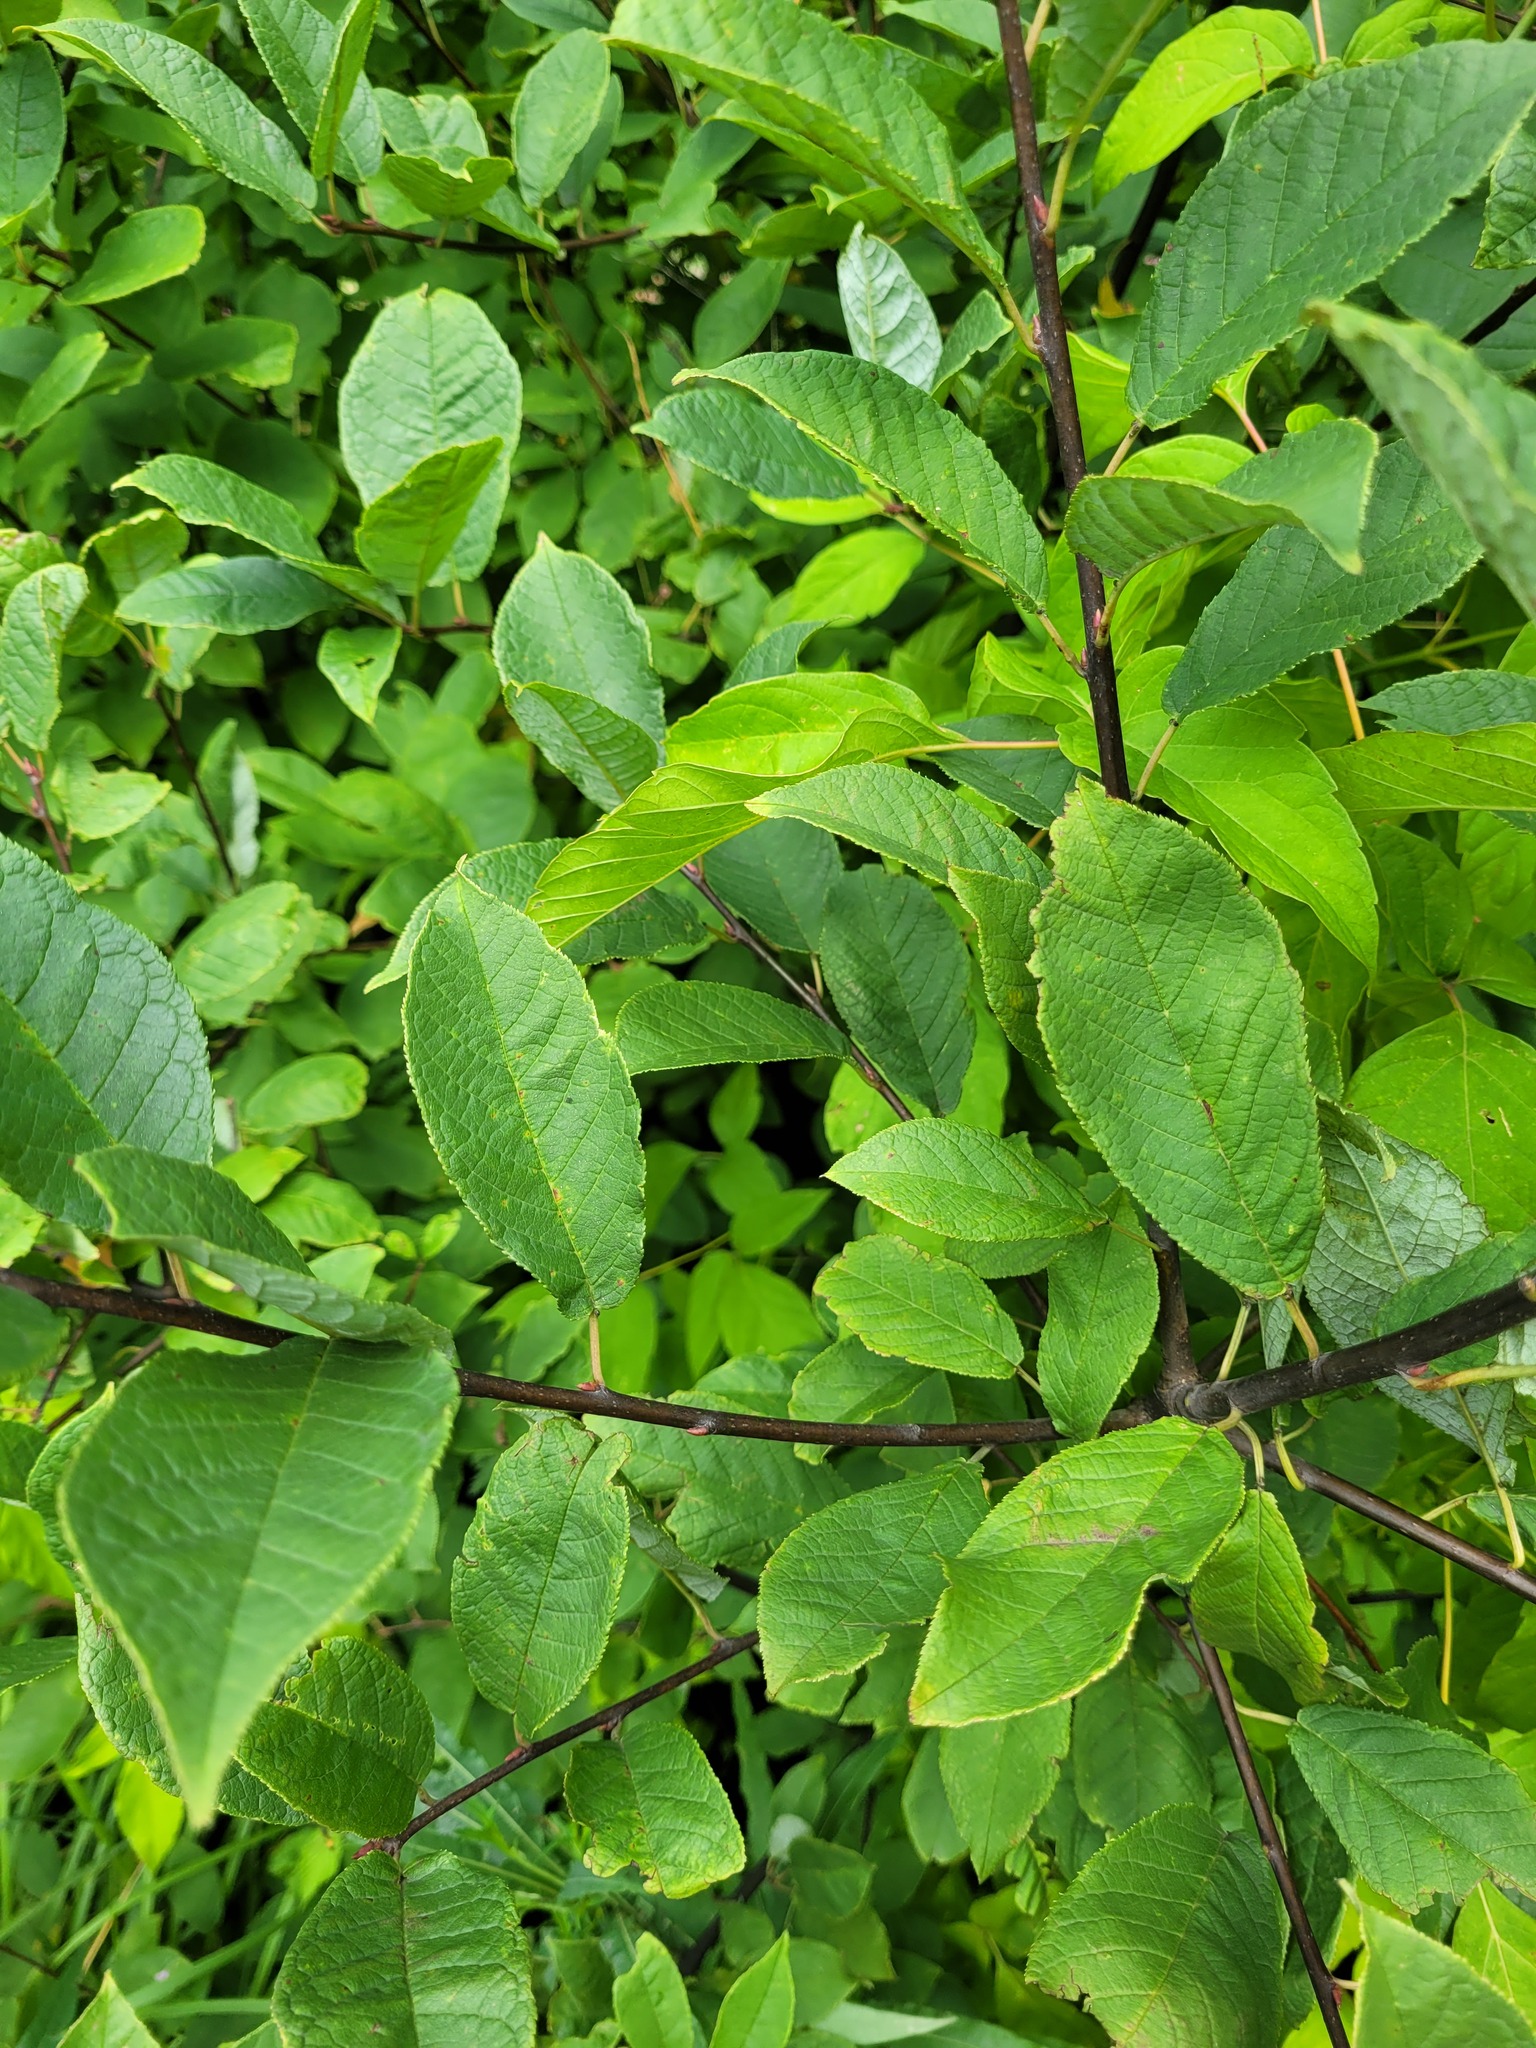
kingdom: Plantae
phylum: Tracheophyta
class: Magnoliopsida
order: Rosales
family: Rosaceae
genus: Prunus
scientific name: Prunus padus
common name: Bird cherry
